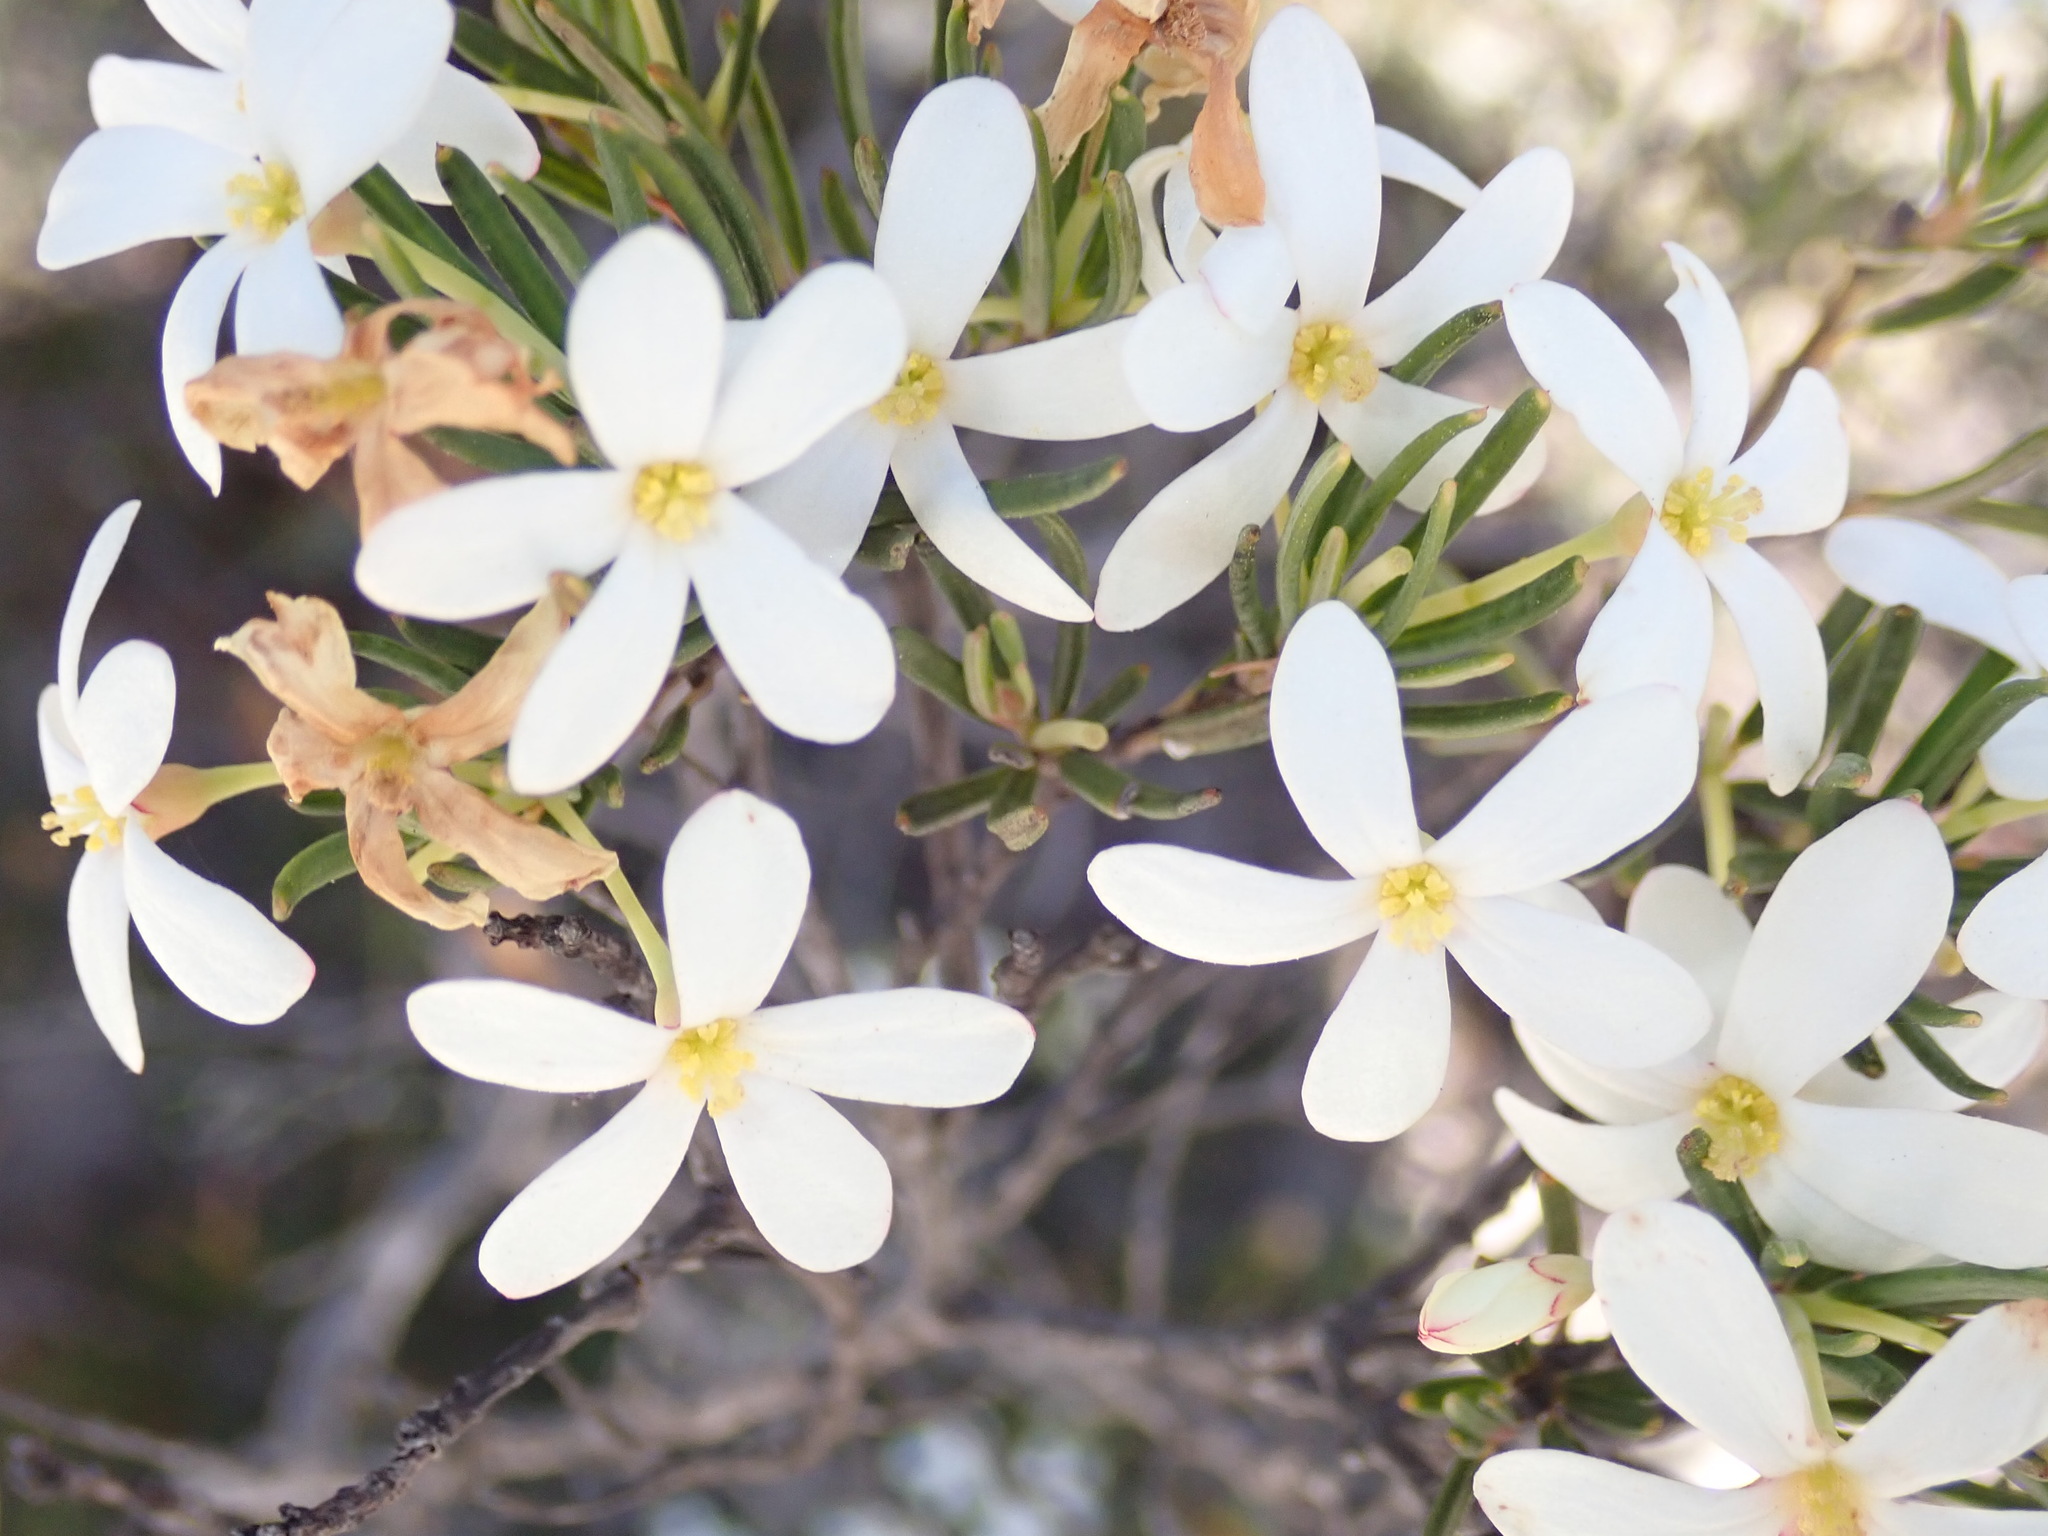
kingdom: Plantae
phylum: Tracheophyta
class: Magnoliopsida
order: Malpighiales
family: Euphorbiaceae
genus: Ricinocarpos
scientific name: Ricinocarpos pinifolius
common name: Weddingbush
